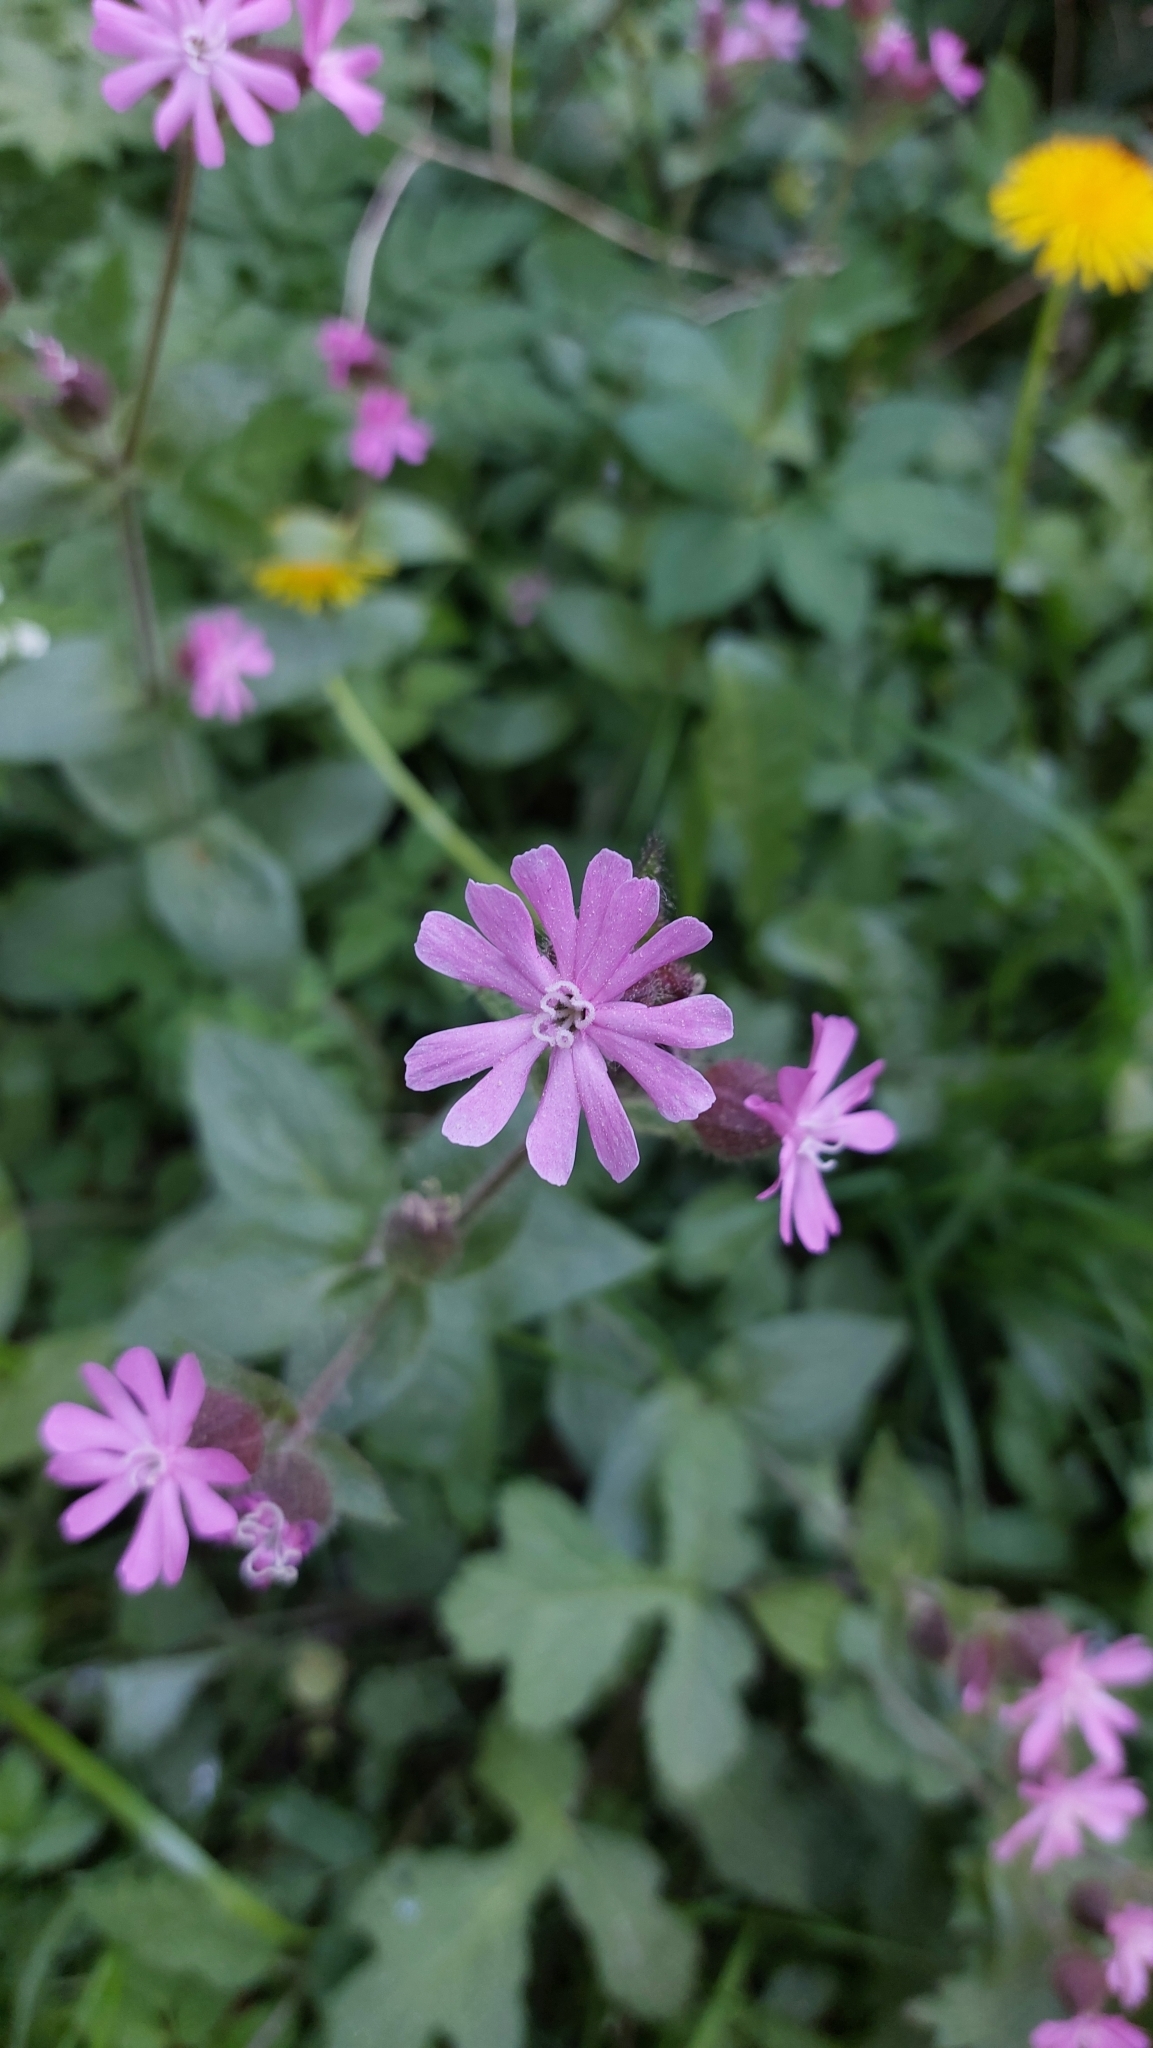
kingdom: Plantae
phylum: Tracheophyta
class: Magnoliopsida
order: Caryophyllales
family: Caryophyllaceae
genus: Silene
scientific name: Silene dioica
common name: Red campion
